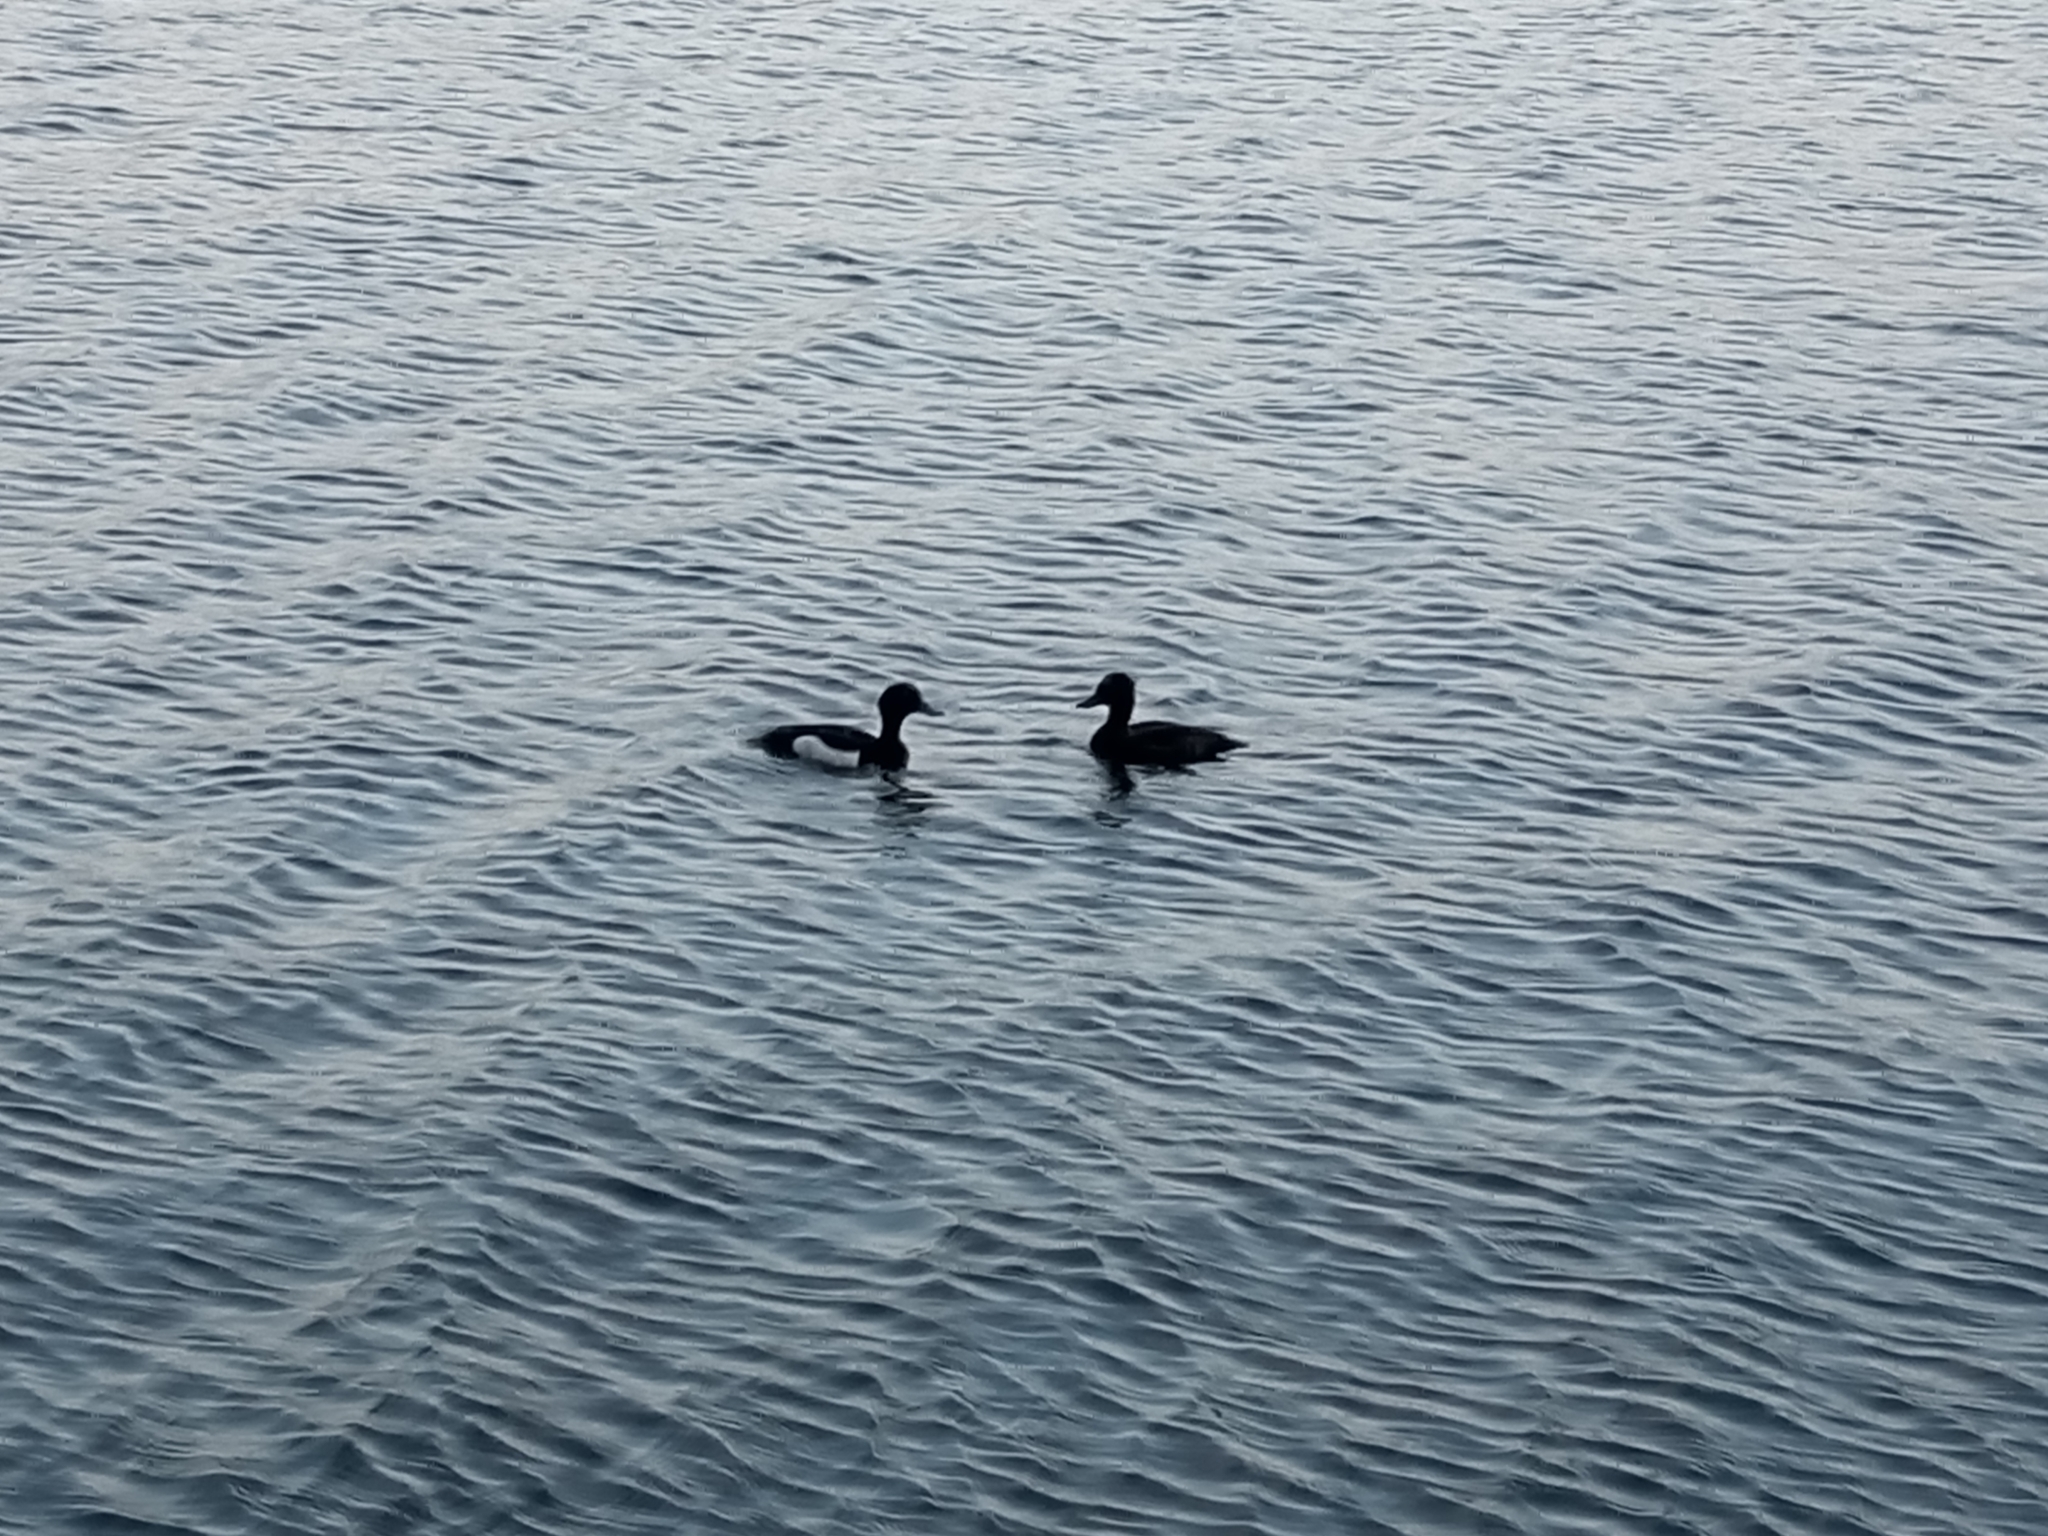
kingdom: Animalia
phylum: Chordata
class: Aves
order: Anseriformes
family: Anatidae
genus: Aythya
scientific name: Aythya fuligula
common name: Tufted duck
